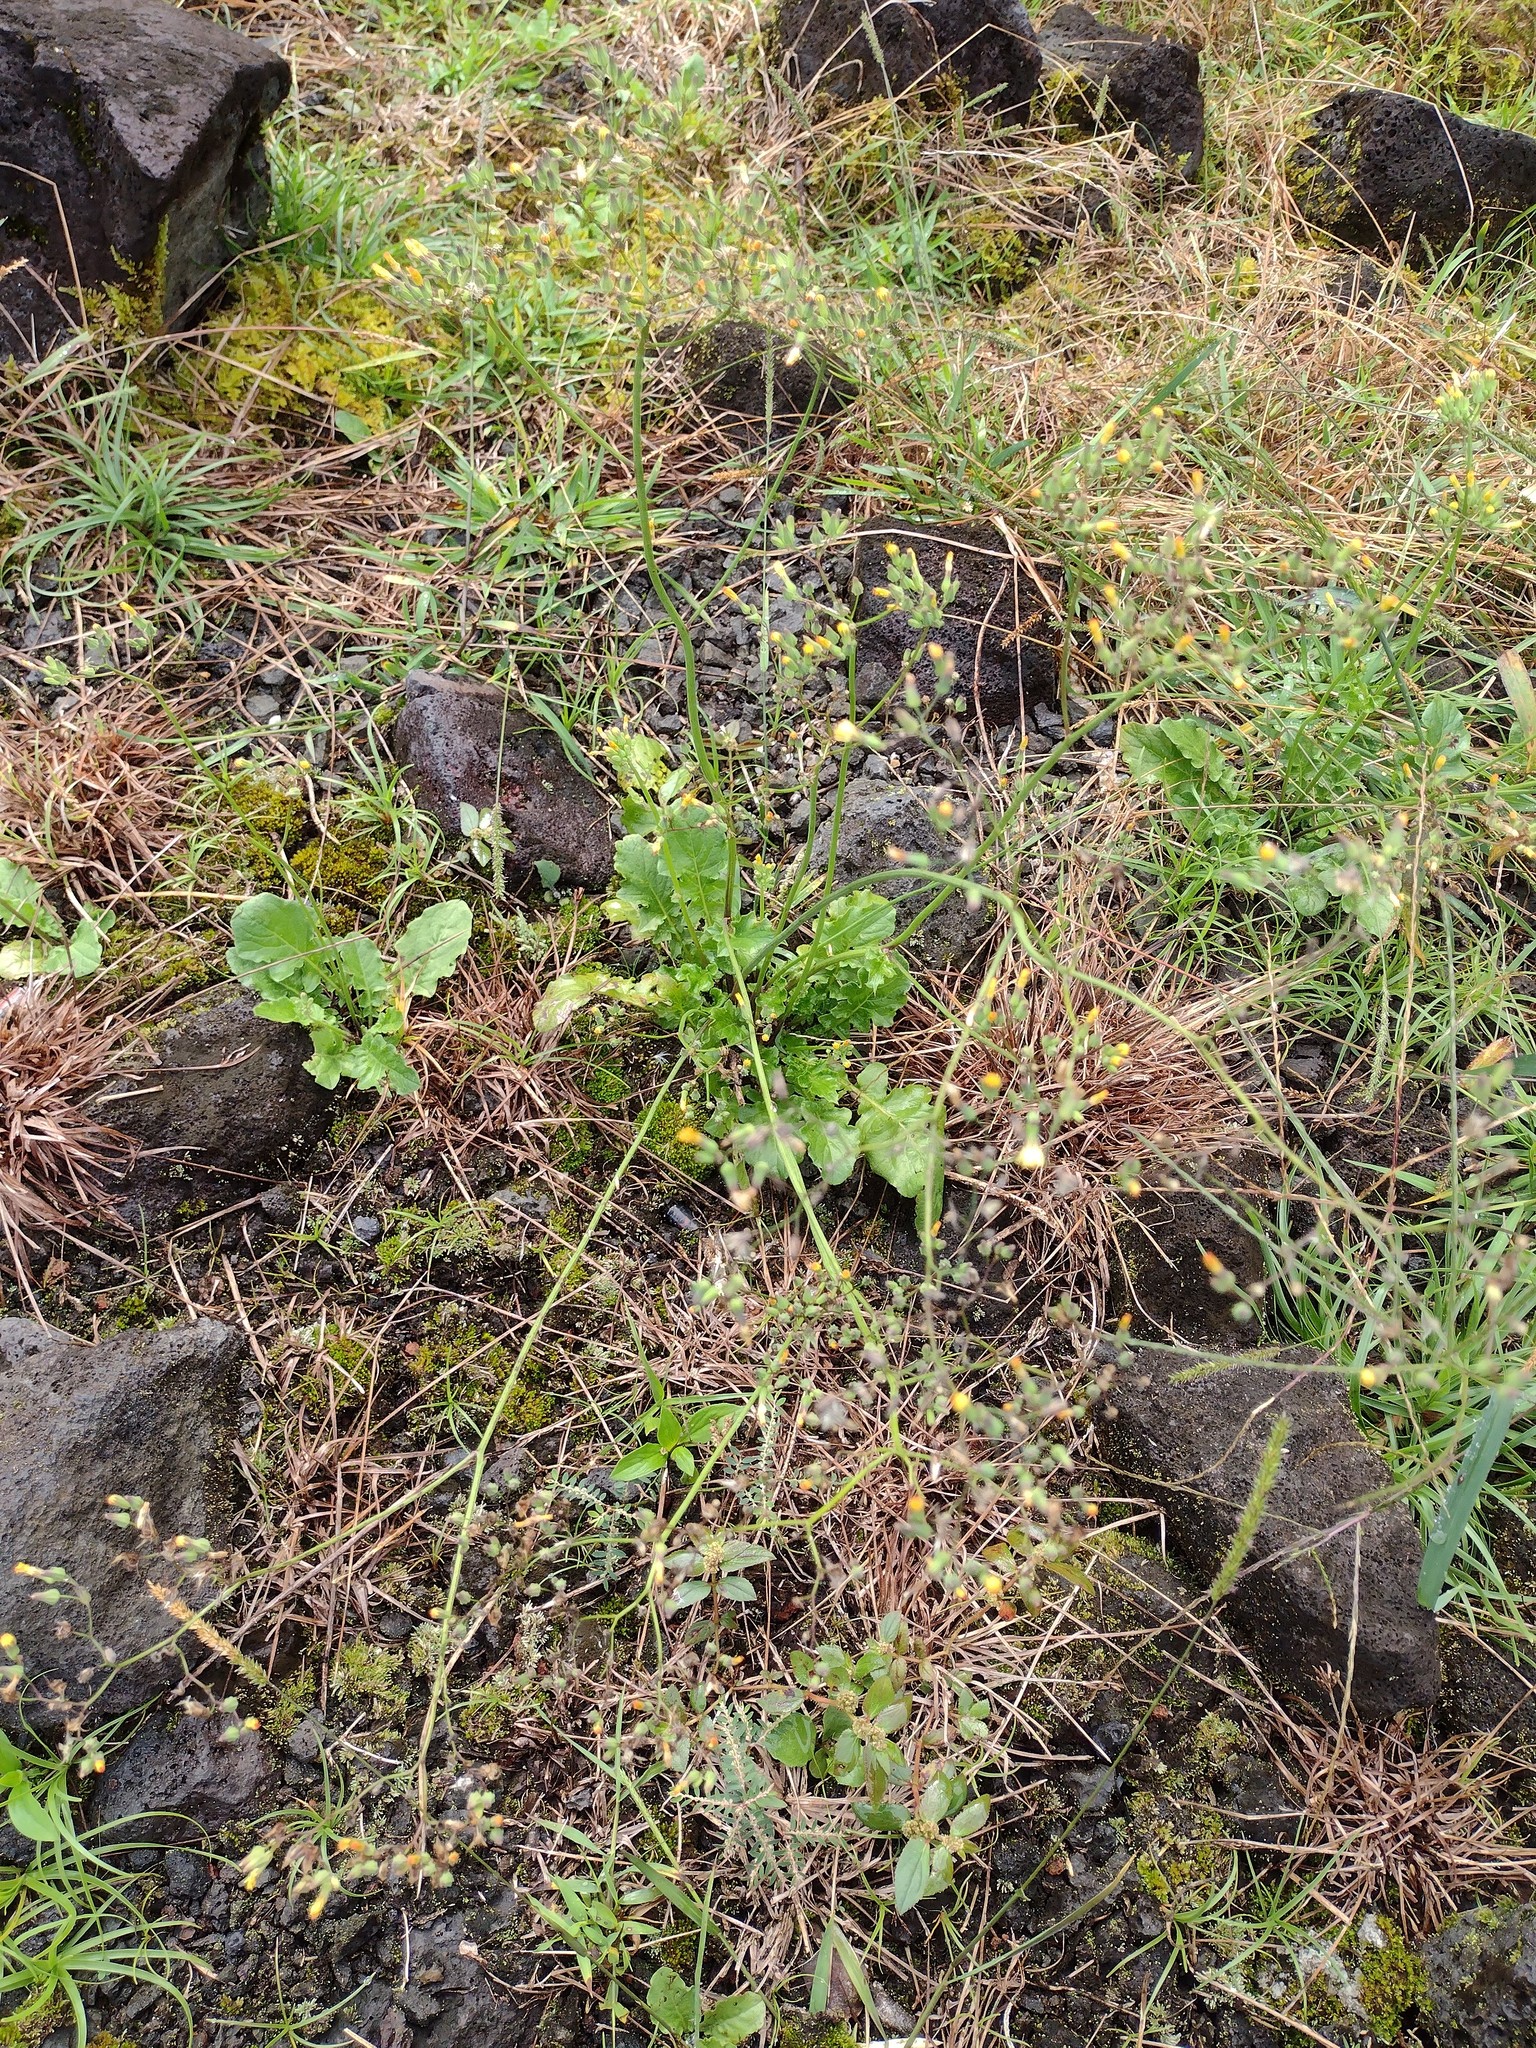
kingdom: Plantae
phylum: Tracheophyta
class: Magnoliopsida
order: Asterales
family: Asteraceae
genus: Youngia
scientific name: Youngia japonica
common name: Oriental false hawksbeard
